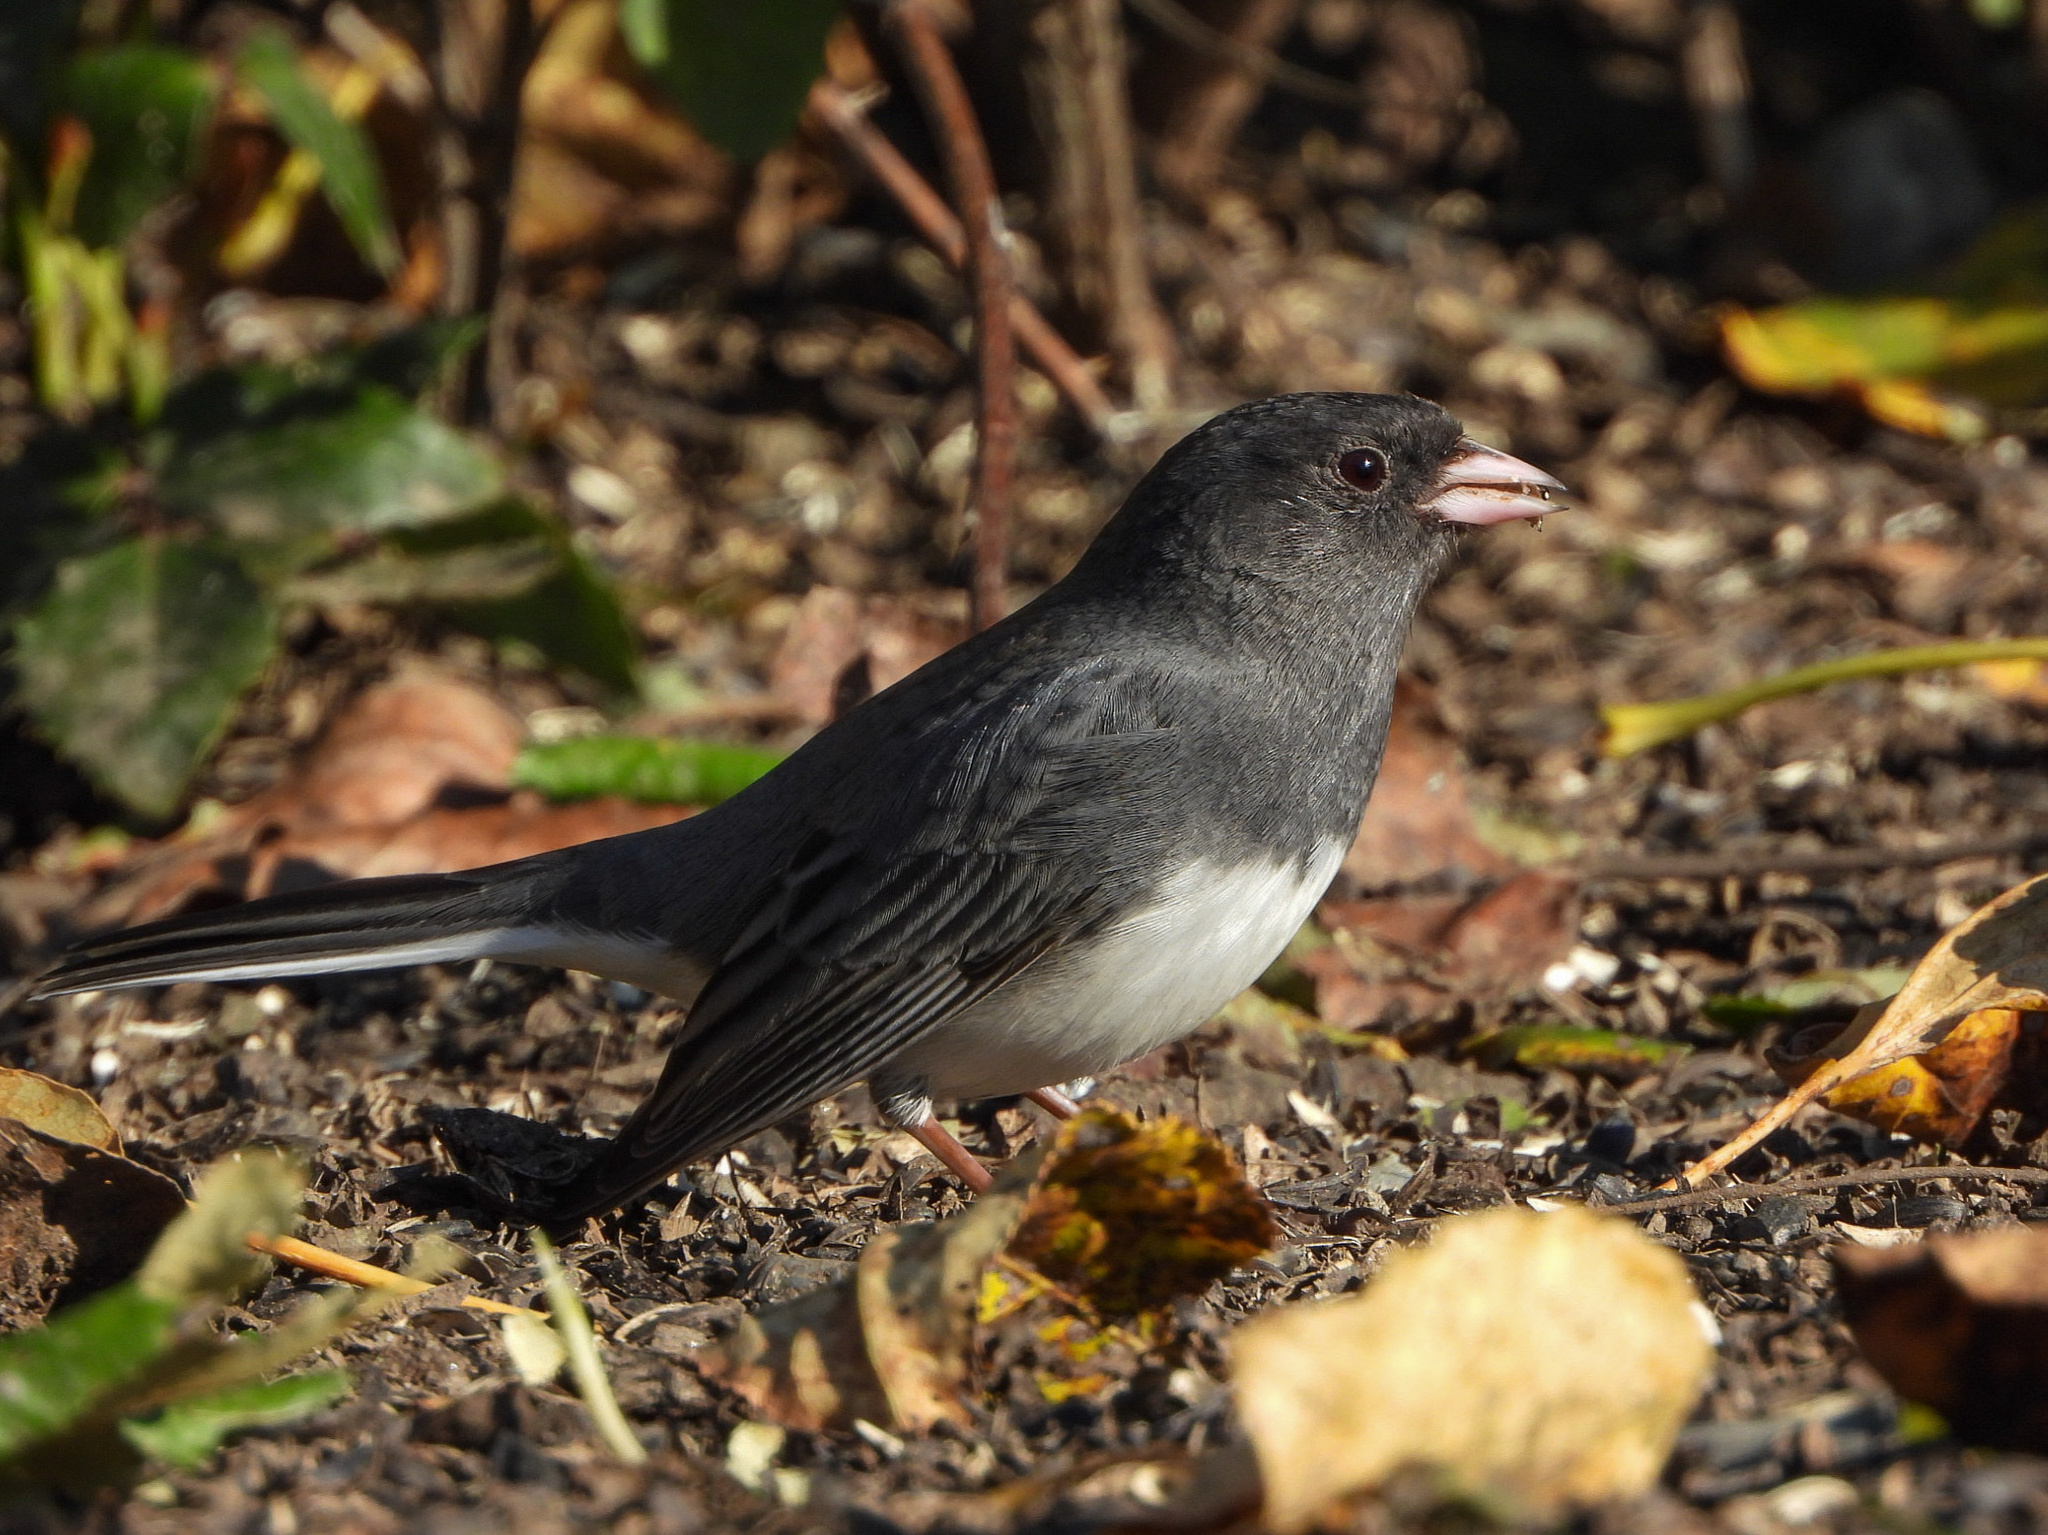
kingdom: Animalia
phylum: Chordata
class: Aves
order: Passeriformes
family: Passerellidae
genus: Junco
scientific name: Junco hyemalis
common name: Dark-eyed junco
